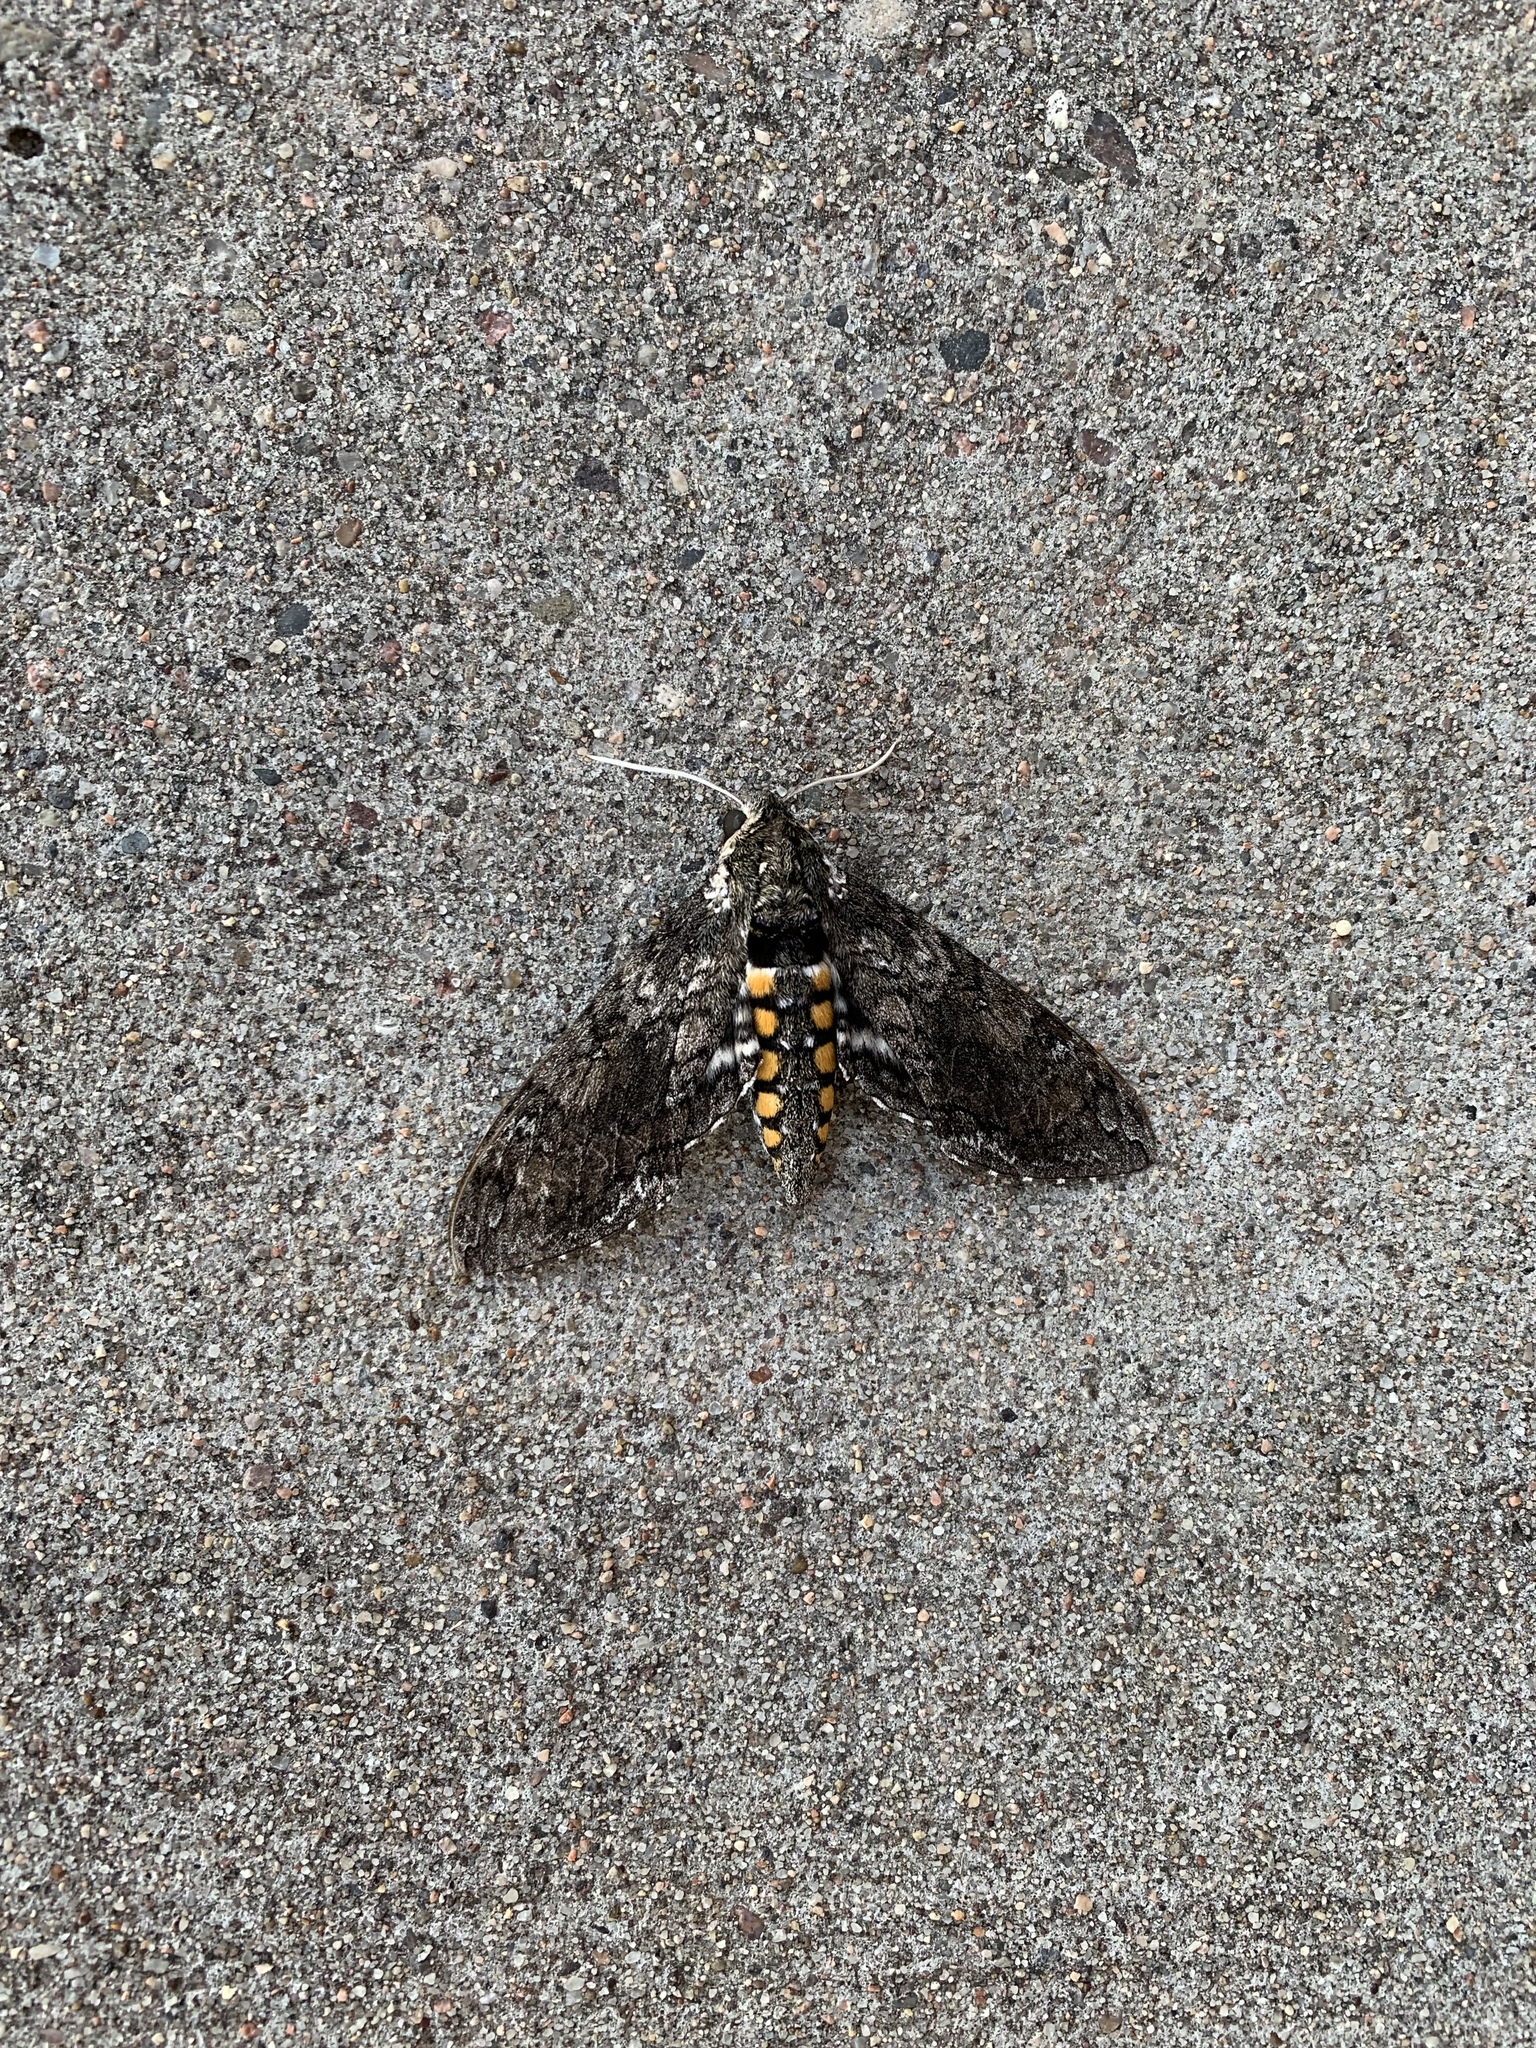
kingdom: Animalia
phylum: Arthropoda
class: Insecta
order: Lepidoptera
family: Sphingidae
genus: Manduca
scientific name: Manduca sexta
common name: Carolina sphinx
